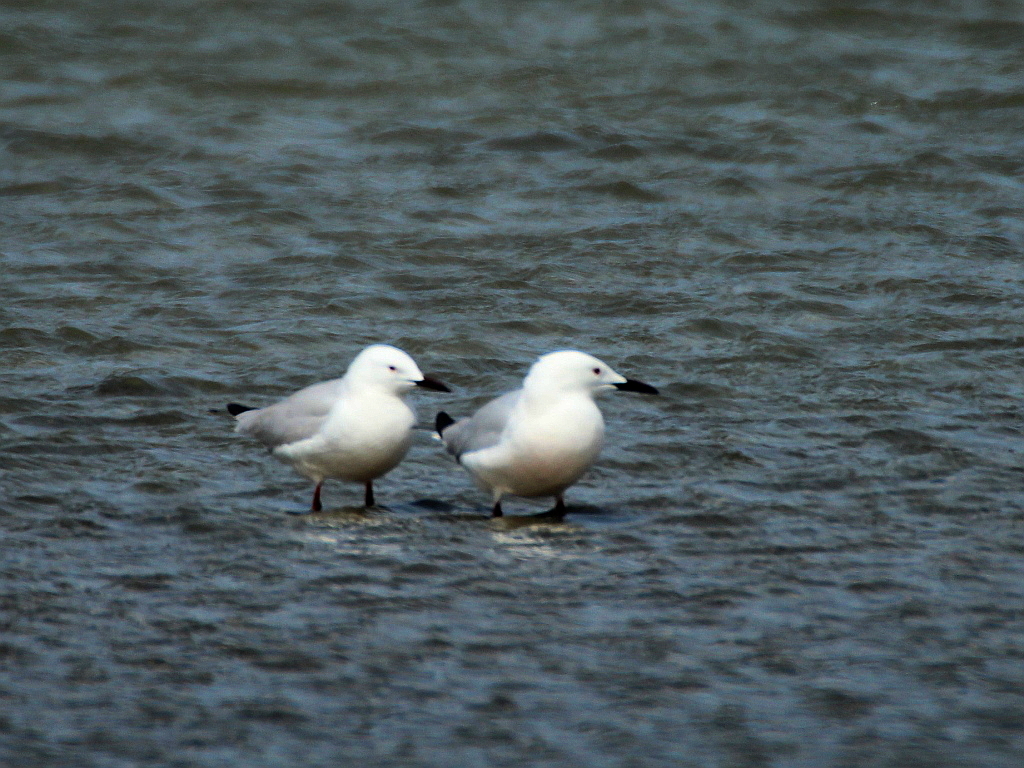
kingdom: Animalia
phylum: Chordata
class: Aves
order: Charadriiformes
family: Laridae
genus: Chroicocephalus
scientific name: Chroicocephalus genei
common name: Slender-billed gull
